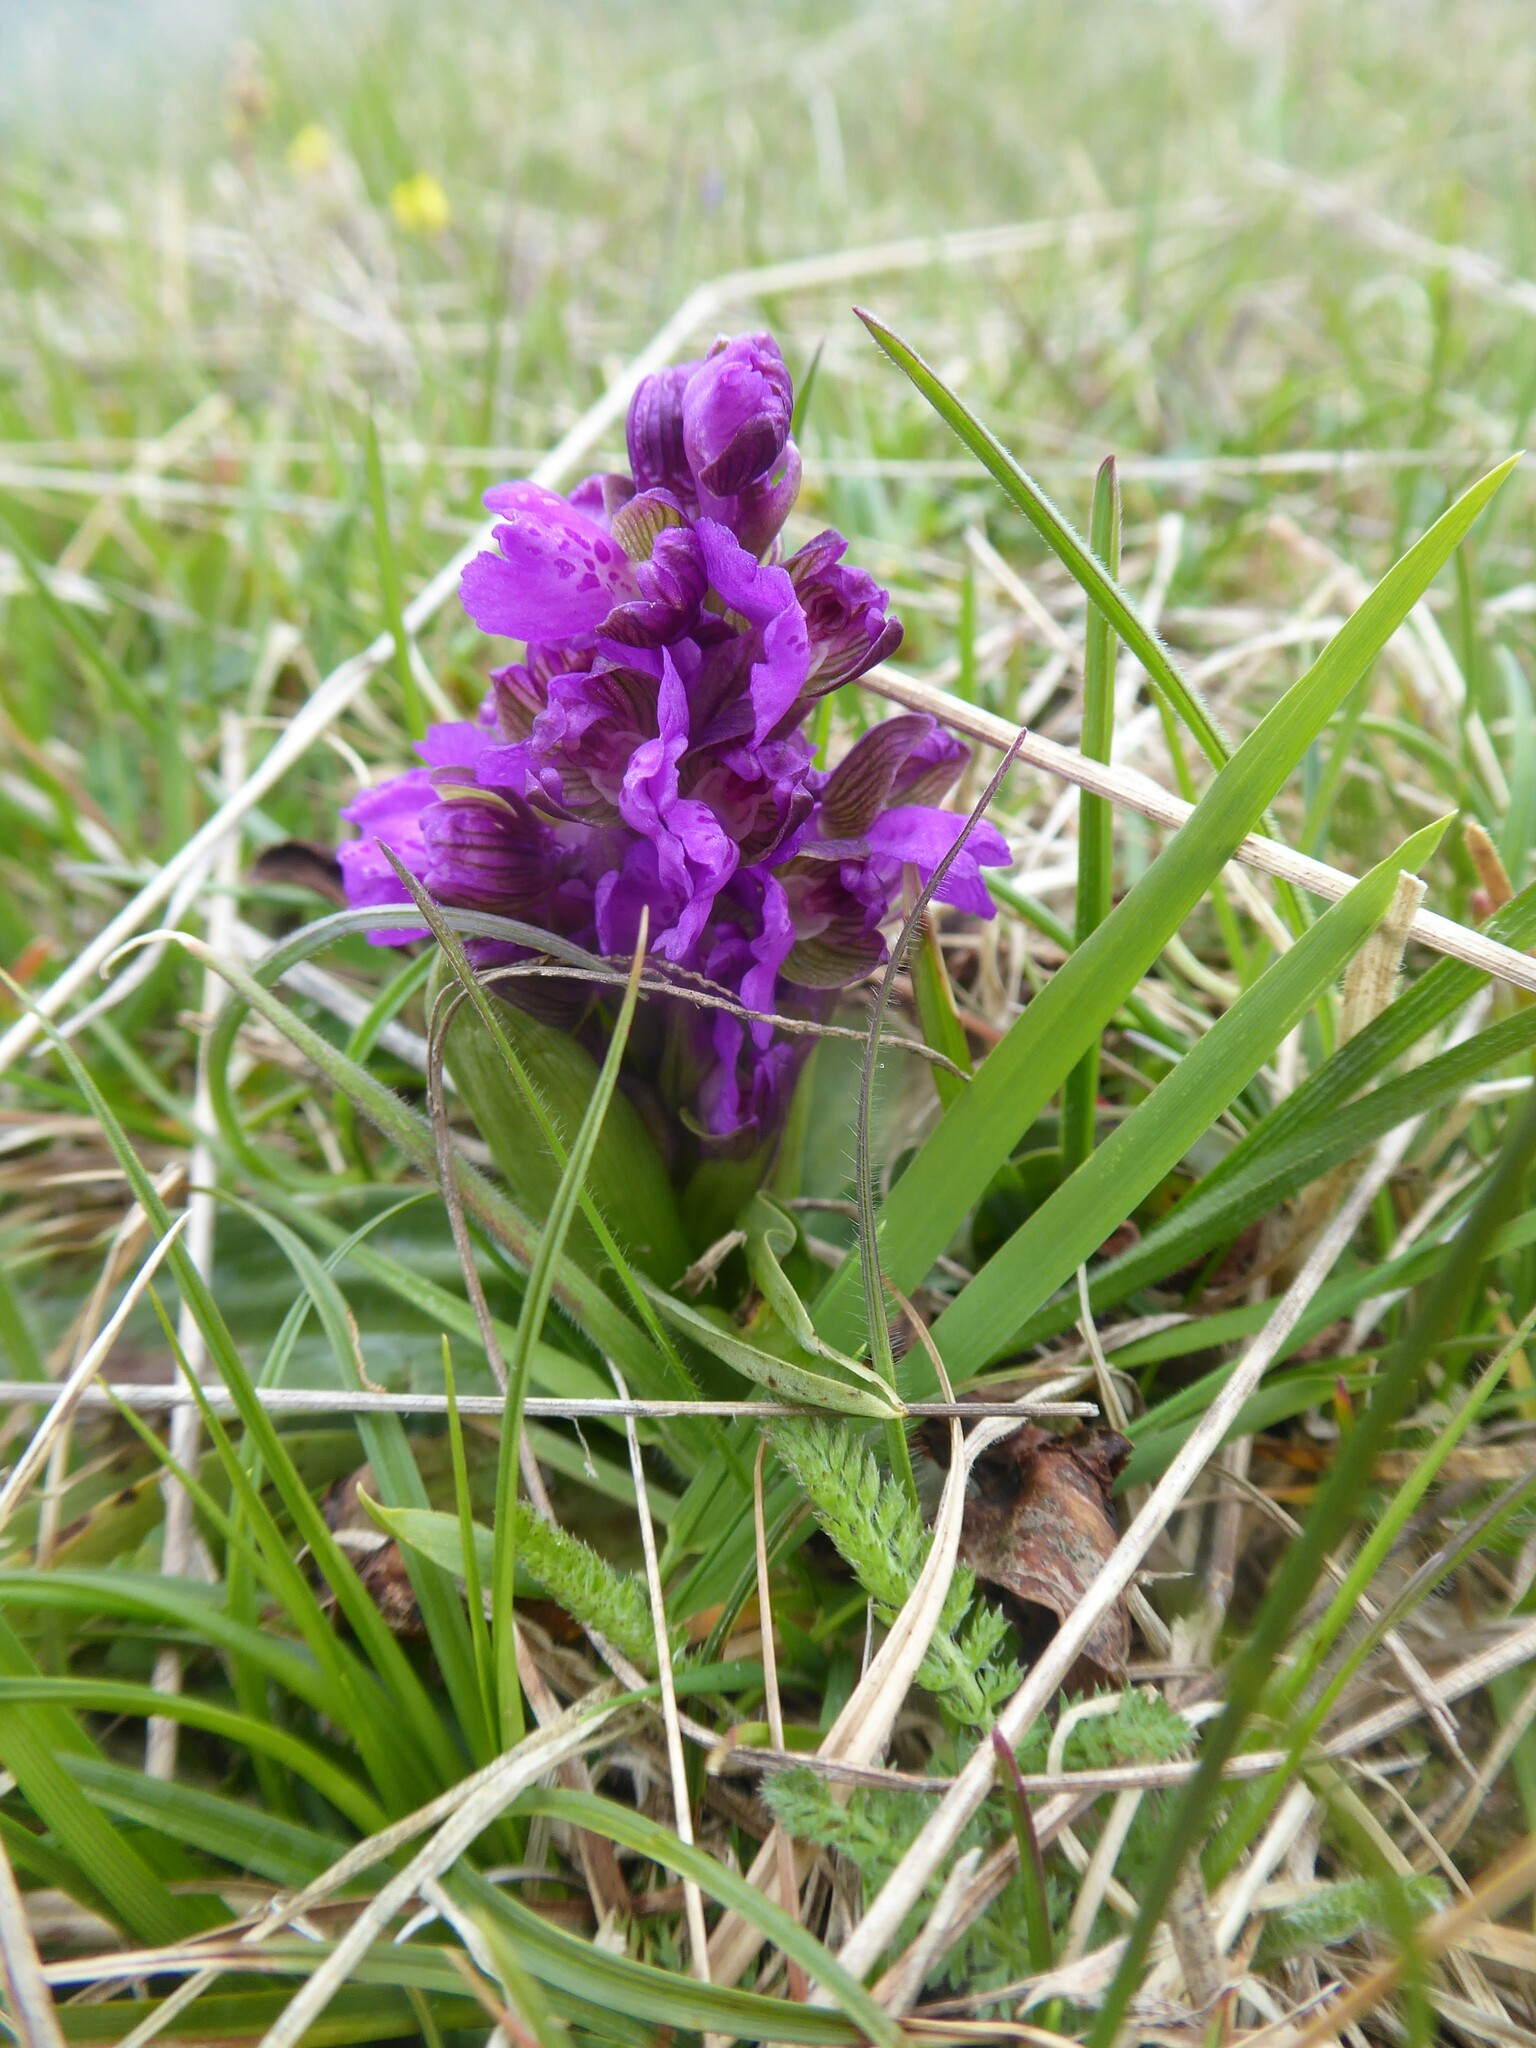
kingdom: Plantae
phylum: Tracheophyta
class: Liliopsida
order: Asparagales
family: Orchidaceae
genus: Anacamptis
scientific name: Anacamptis morio
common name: Green-winged orchid
